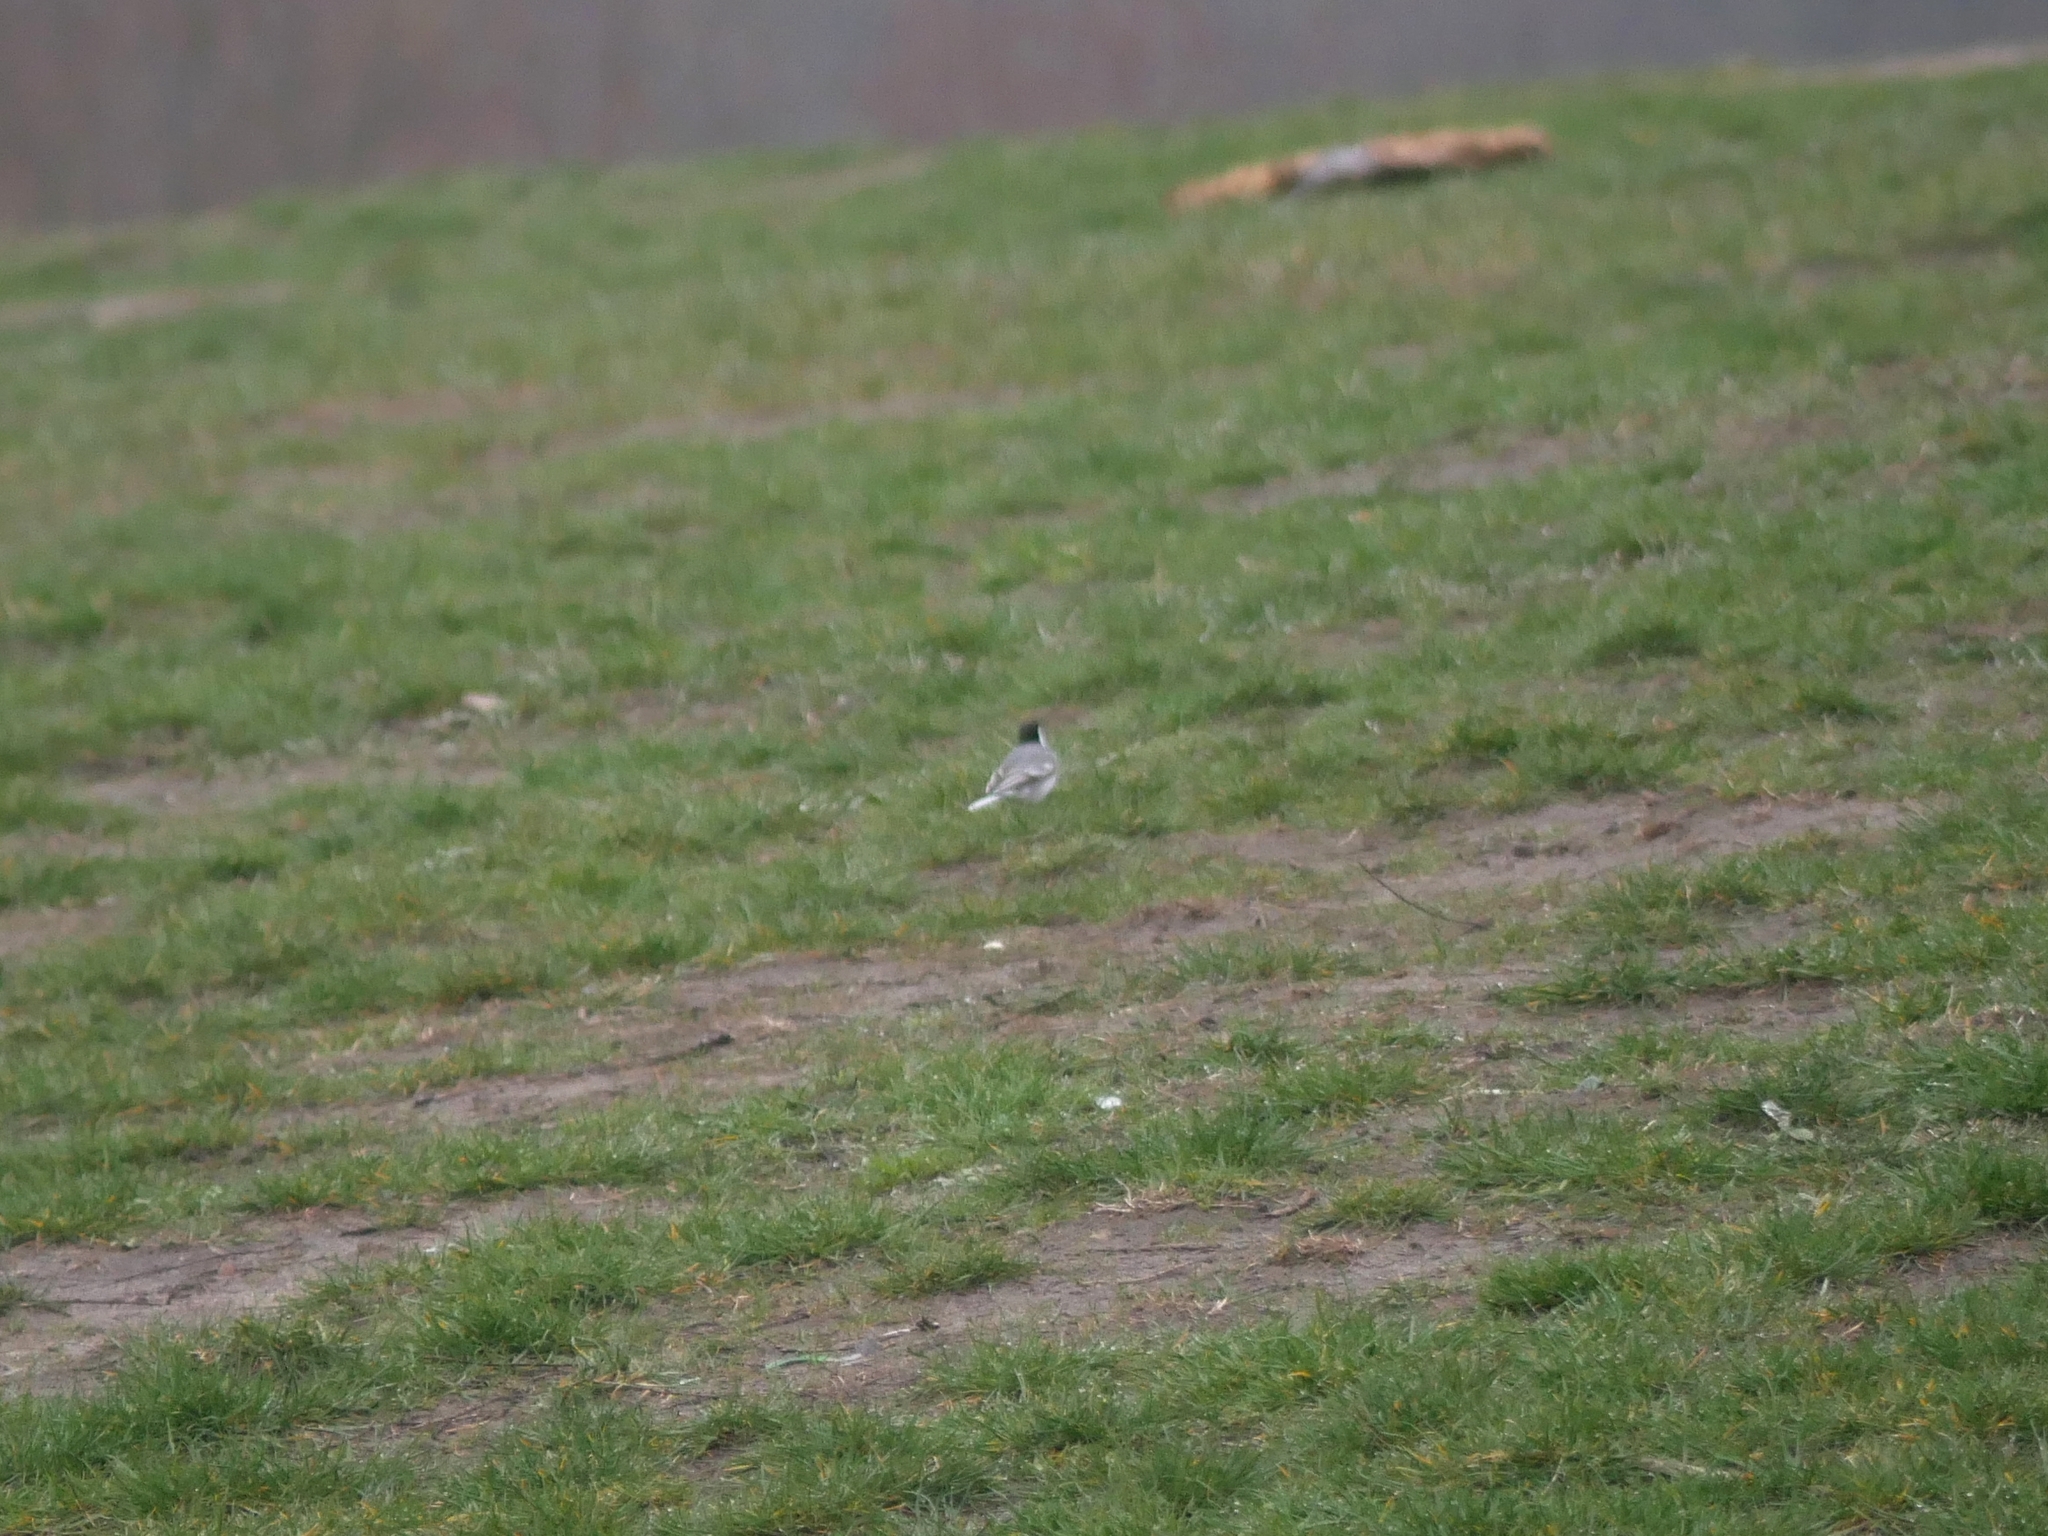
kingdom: Animalia
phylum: Chordata
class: Aves
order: Passeriformes
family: Motacillidae
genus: Motacilla
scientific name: Motacilla alba
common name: White wagtail
